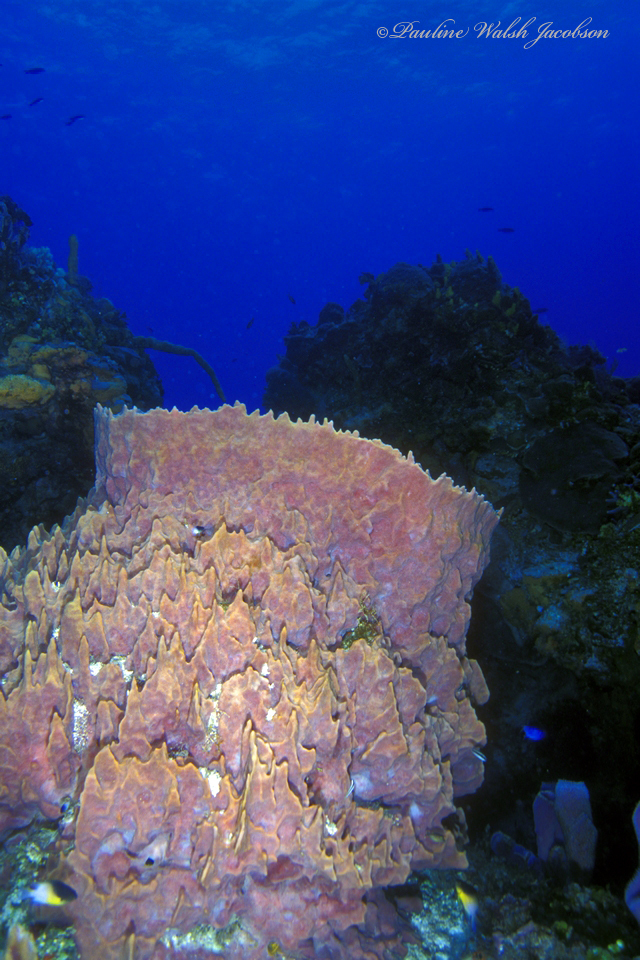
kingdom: Animalia
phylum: Porifera
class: Demospongiae
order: Haplosclerida
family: Petrosiidae
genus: Xestospongia
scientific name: Xestospongia muta
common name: Giant barrel sponge
